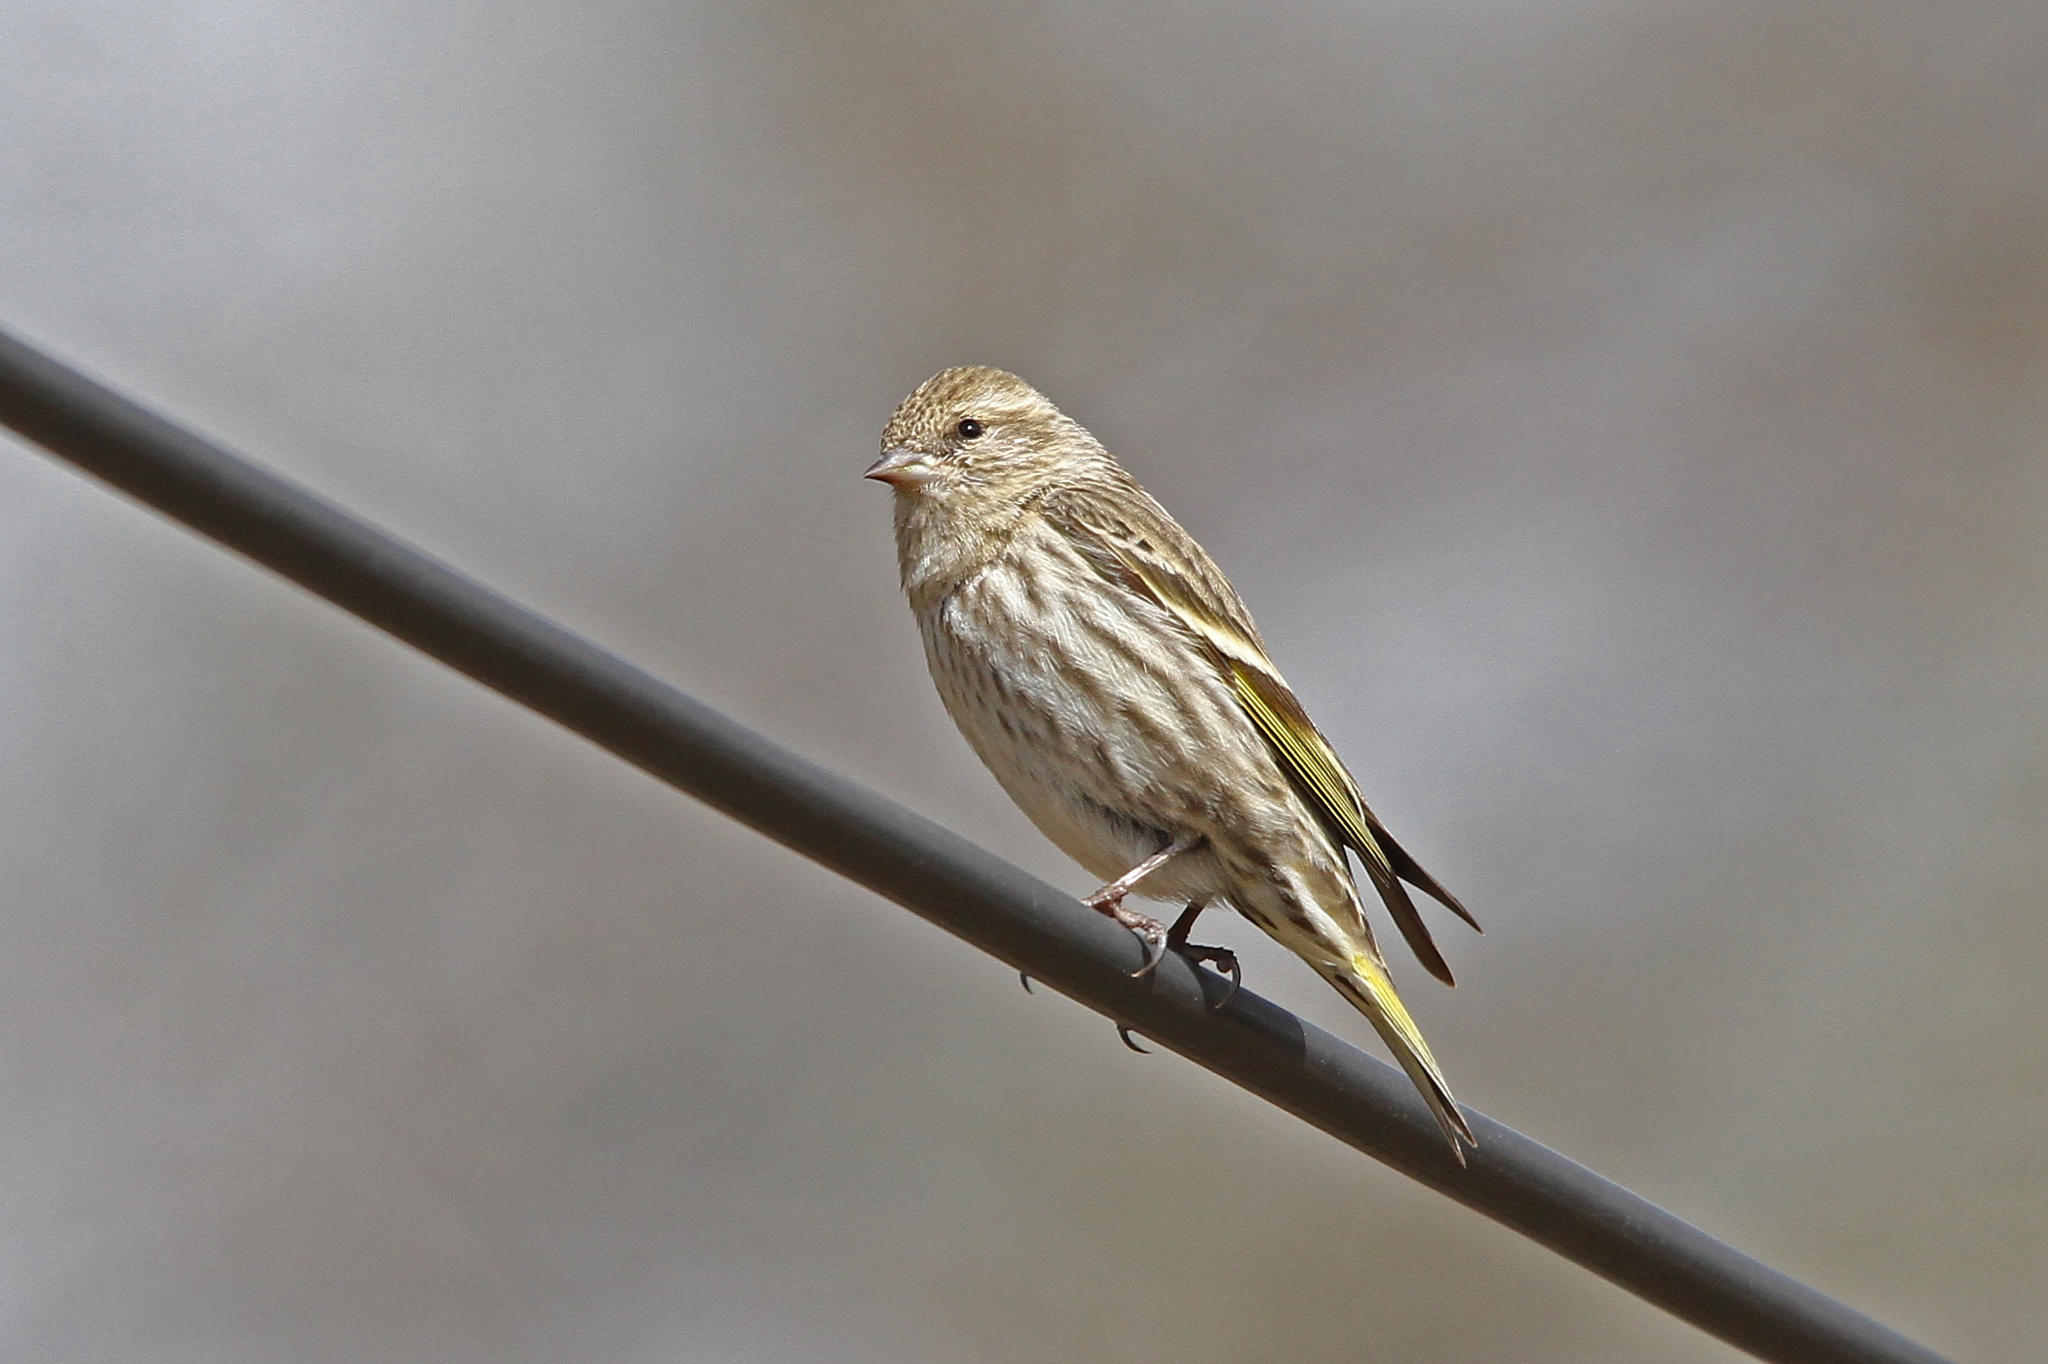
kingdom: Animalia
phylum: Chordata
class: Aves
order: Passeriformes
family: Fringillidae
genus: Spinus
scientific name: Spinus pinus
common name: Pine siskin
